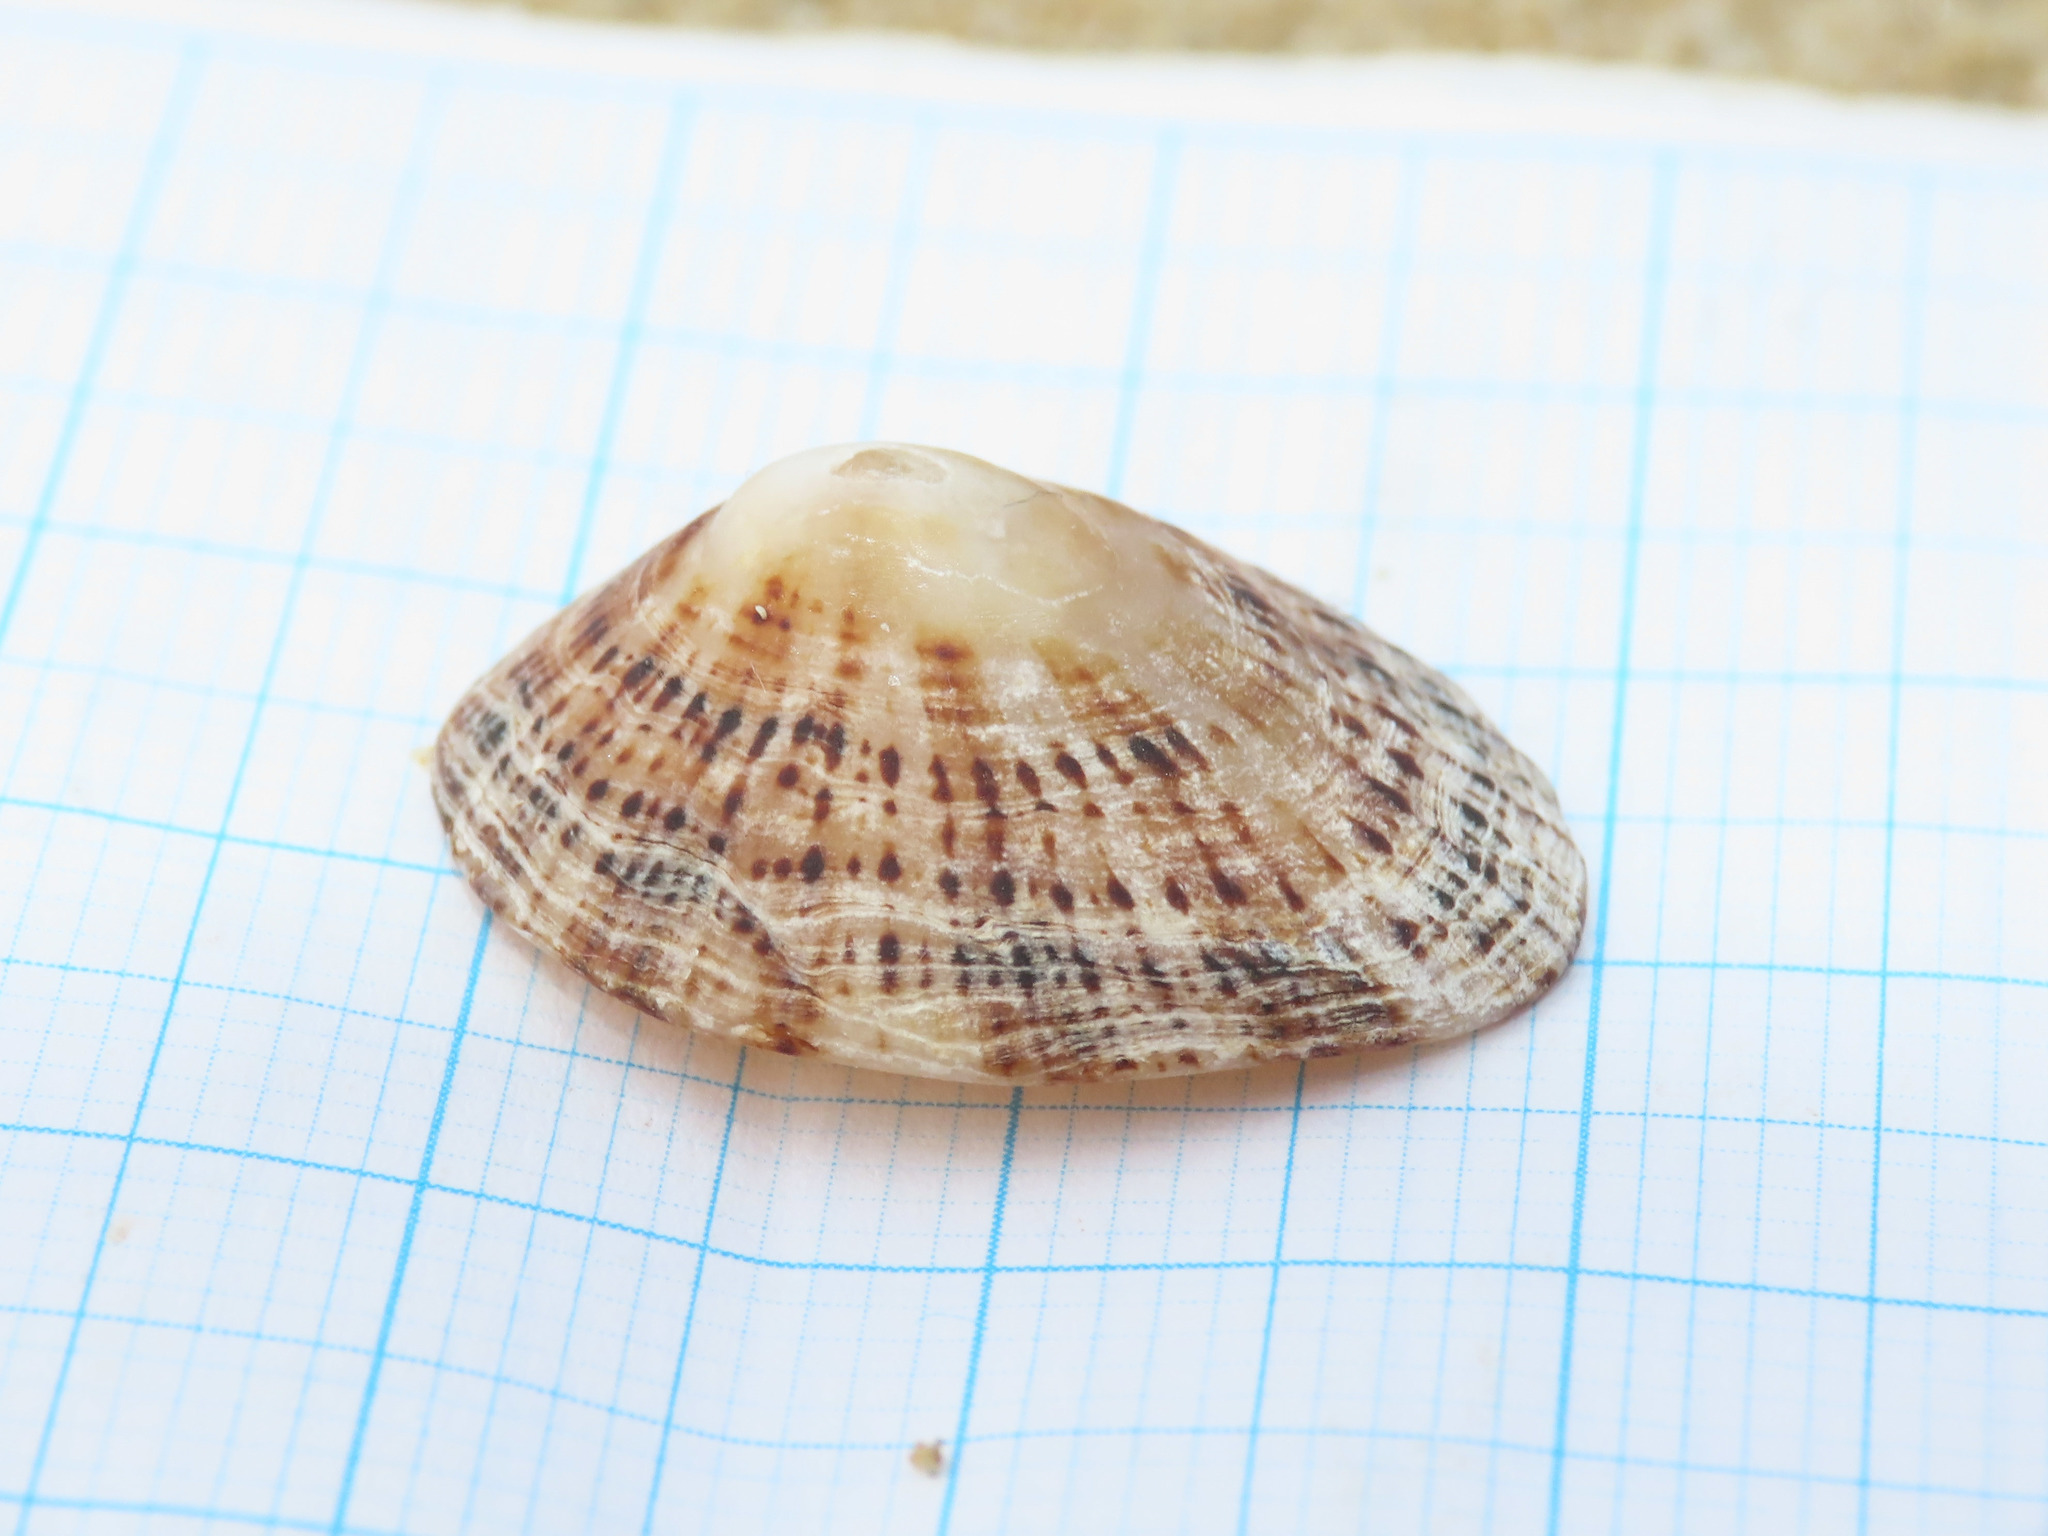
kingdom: Animalia
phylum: Mollusca
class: Gastropoda
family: Patellidae
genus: Patella
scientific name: Patella rustica
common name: Lusitanian limpet
